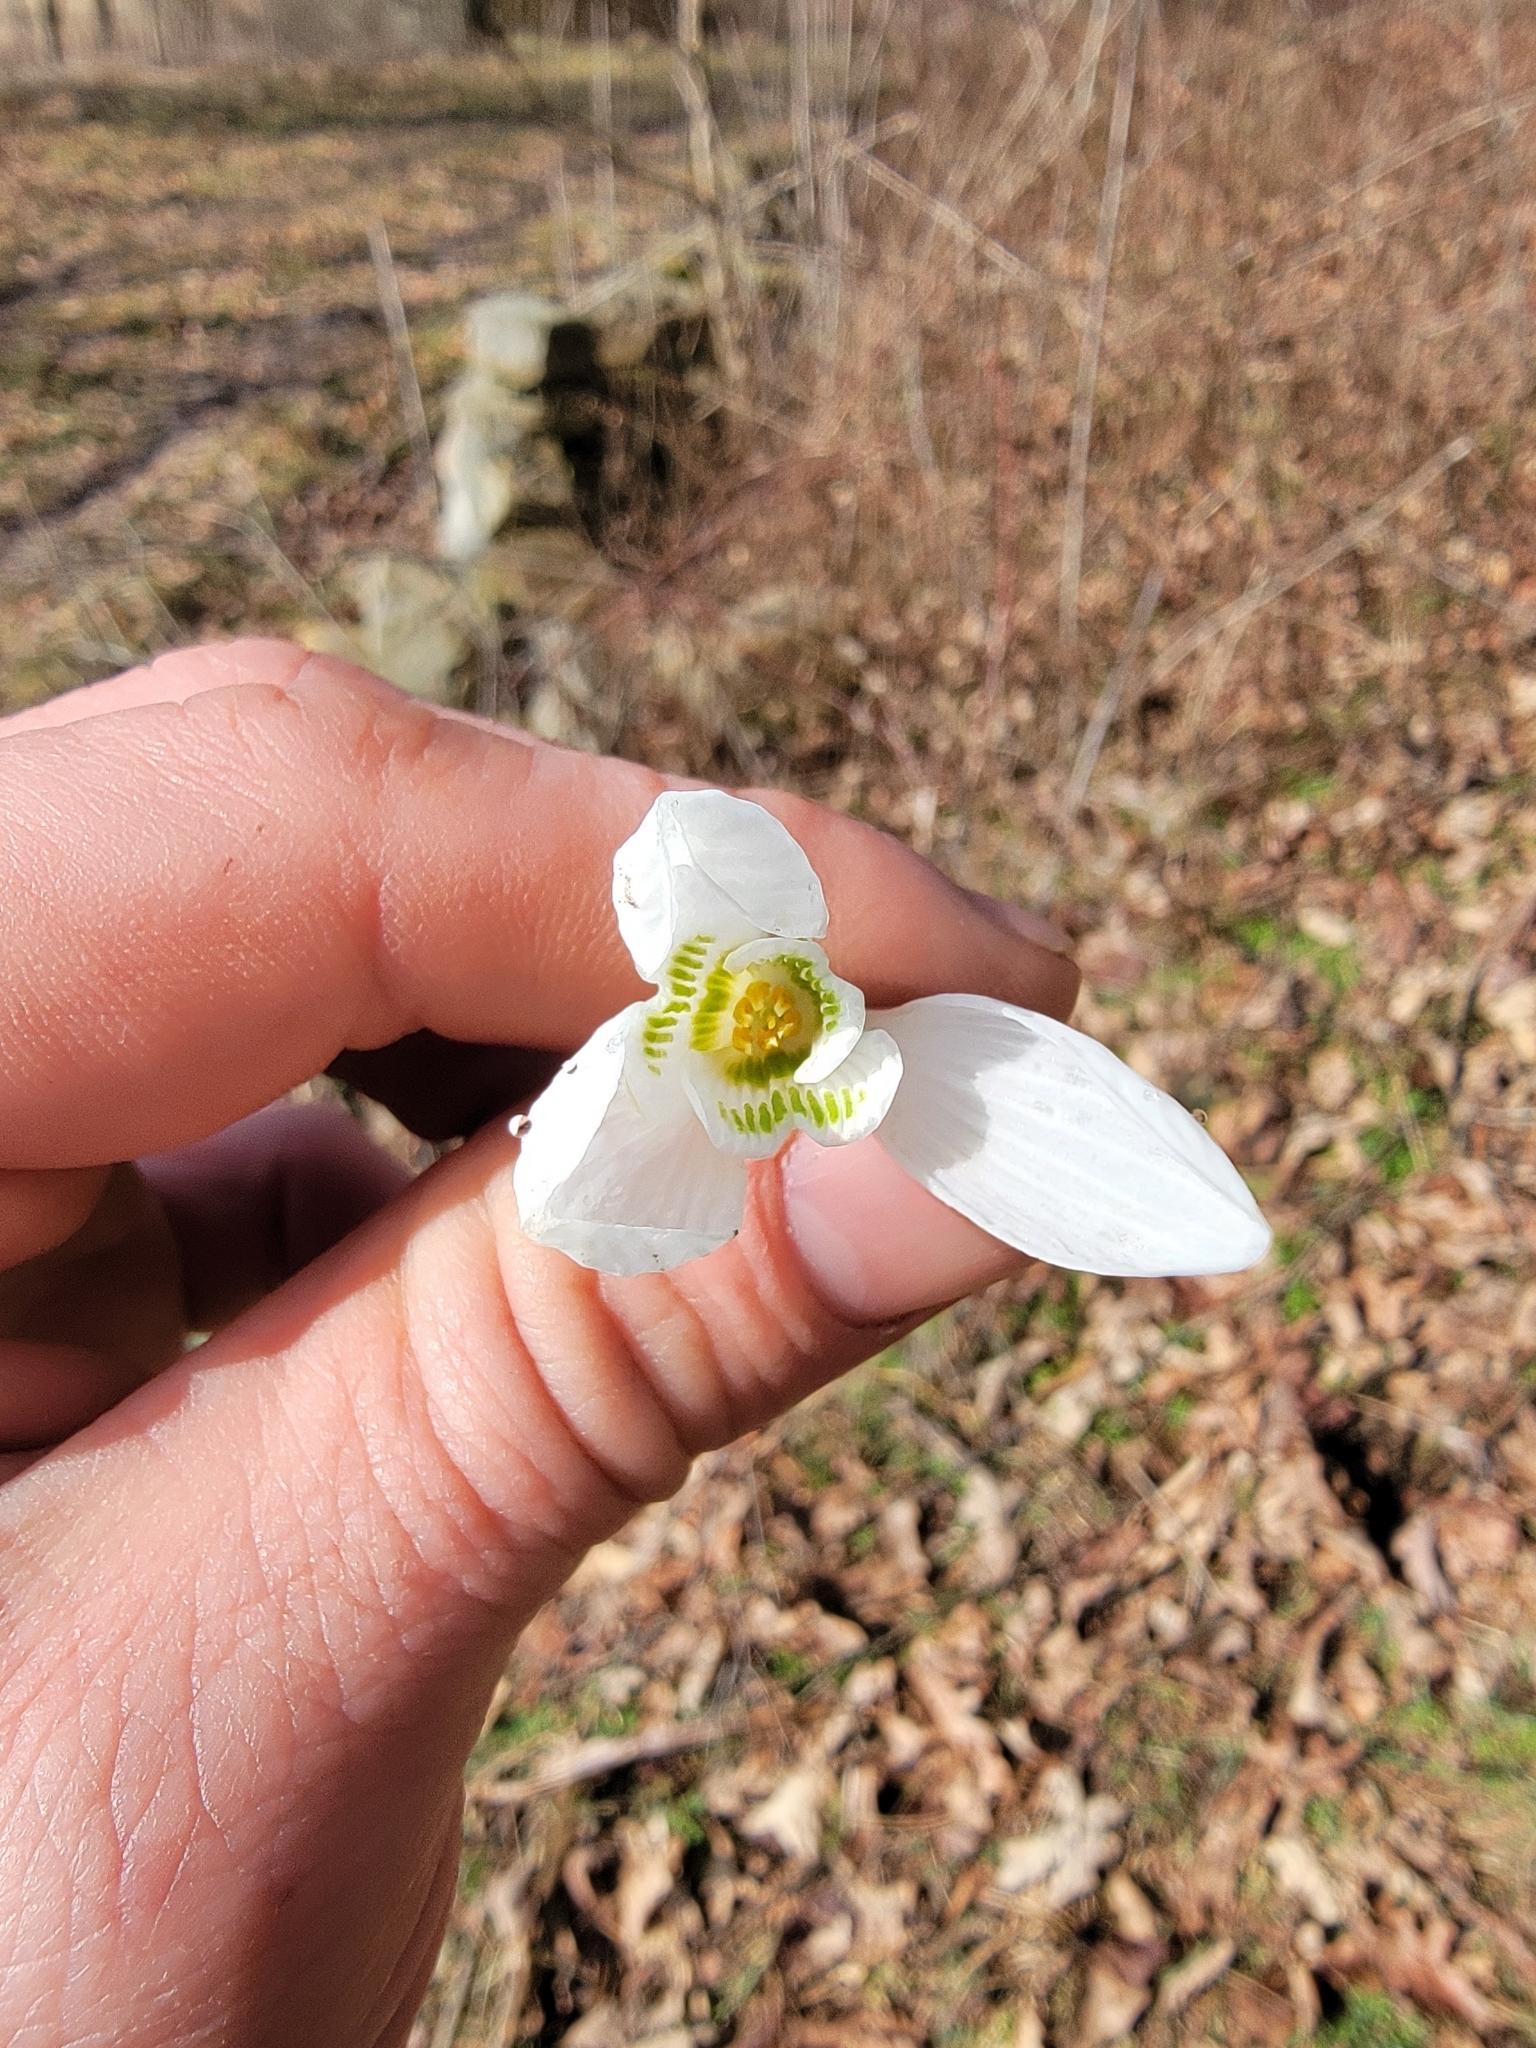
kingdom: Plantae
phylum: Tracheophyta
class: Liliopsida
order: Asparagales
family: Amaryllidaceae
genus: Galanthus
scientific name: Galanthus nivalis
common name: Snowdrop
